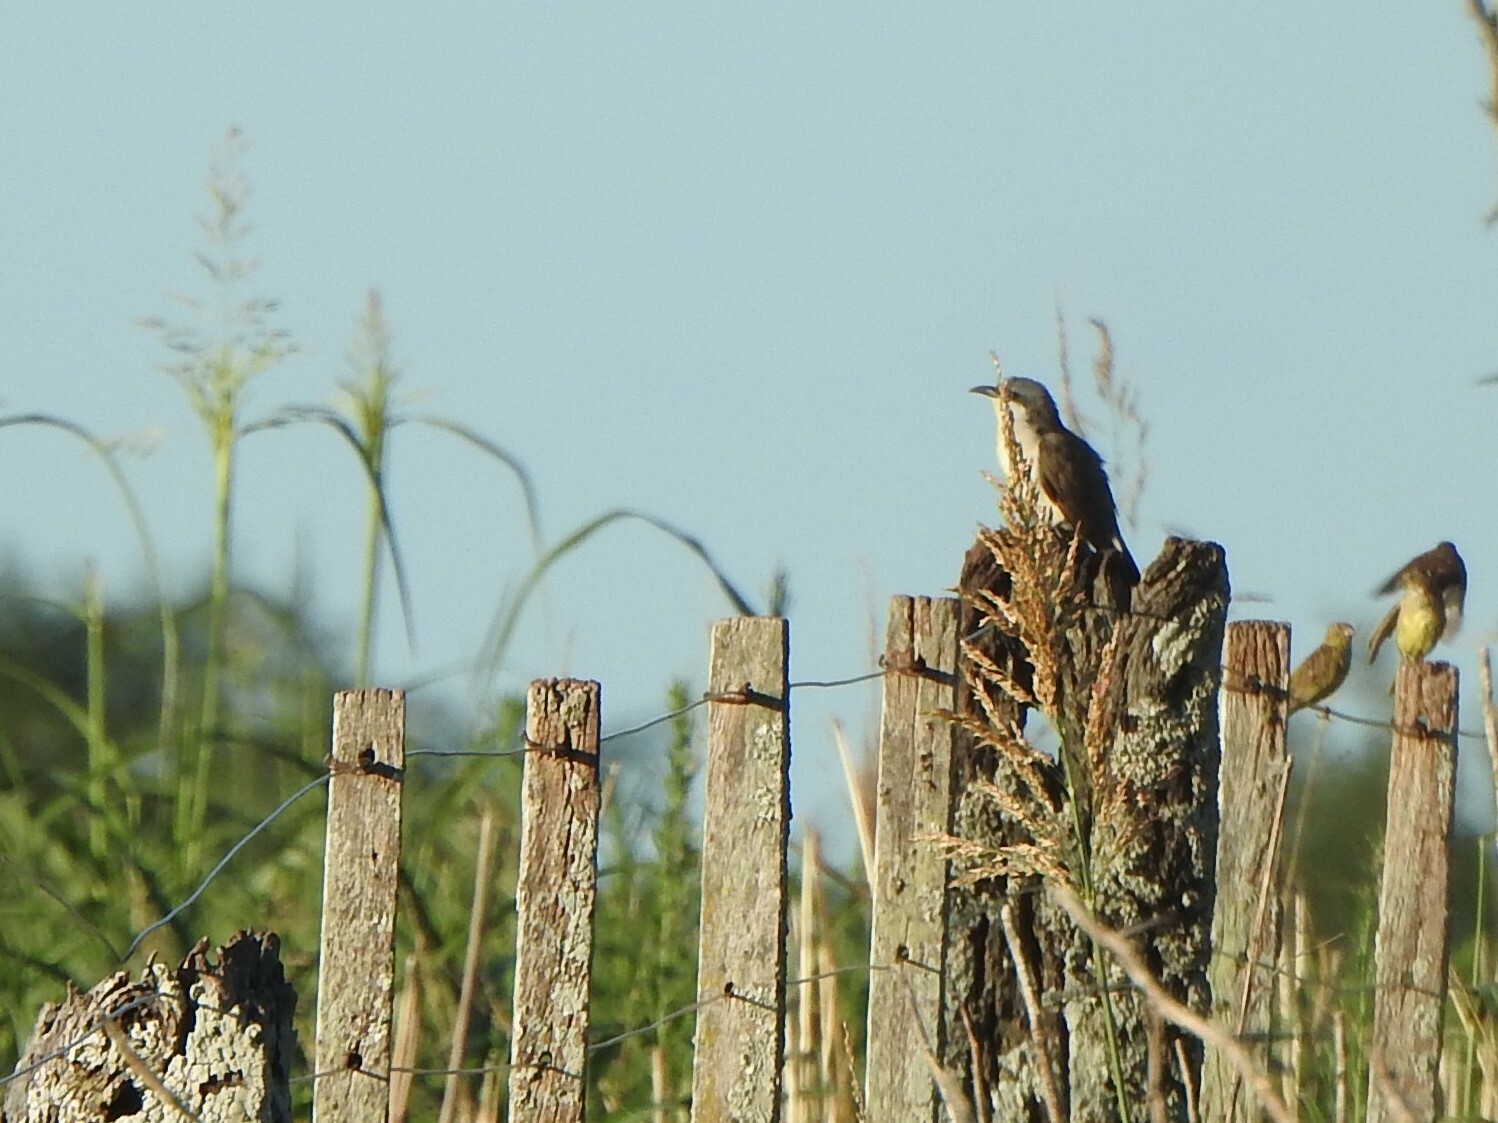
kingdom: Animalia
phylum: Chordata
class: Aves
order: Cuculiformes
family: Cuculidae
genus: Coccyzus
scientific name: Coccyzus melacoryphus
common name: Dark-billed cuckoo
